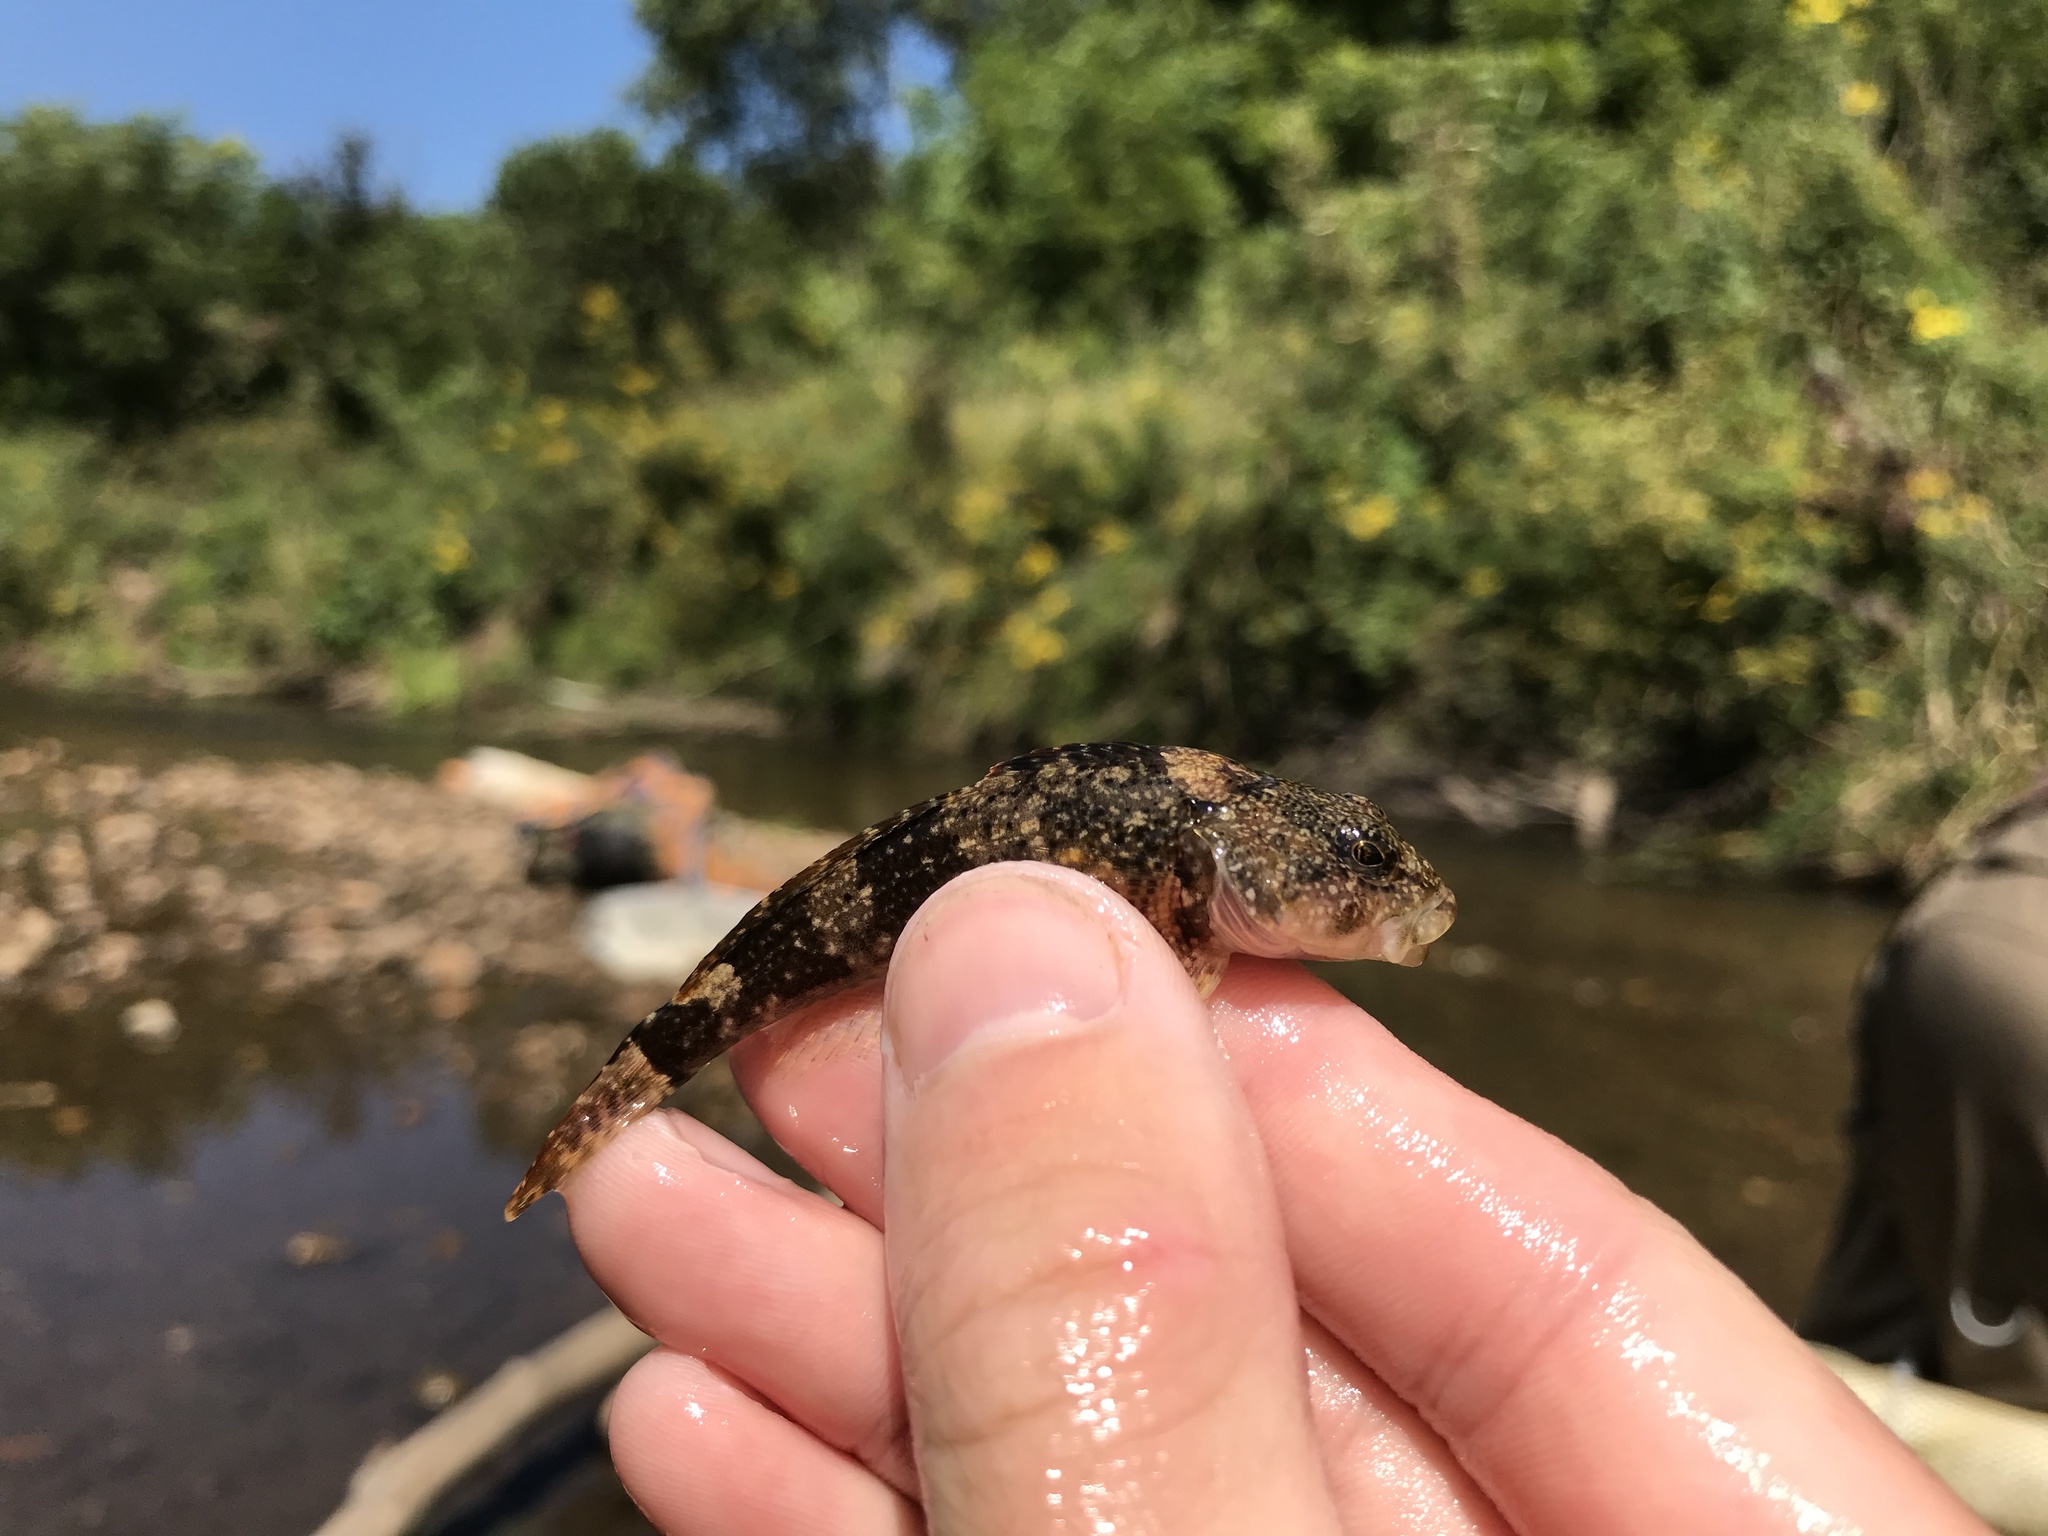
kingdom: Animalia
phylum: Chordata
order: Scorpaeniformes
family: Cottidae
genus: Cottus
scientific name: Cottus bairdii
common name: Mottled sculpin
